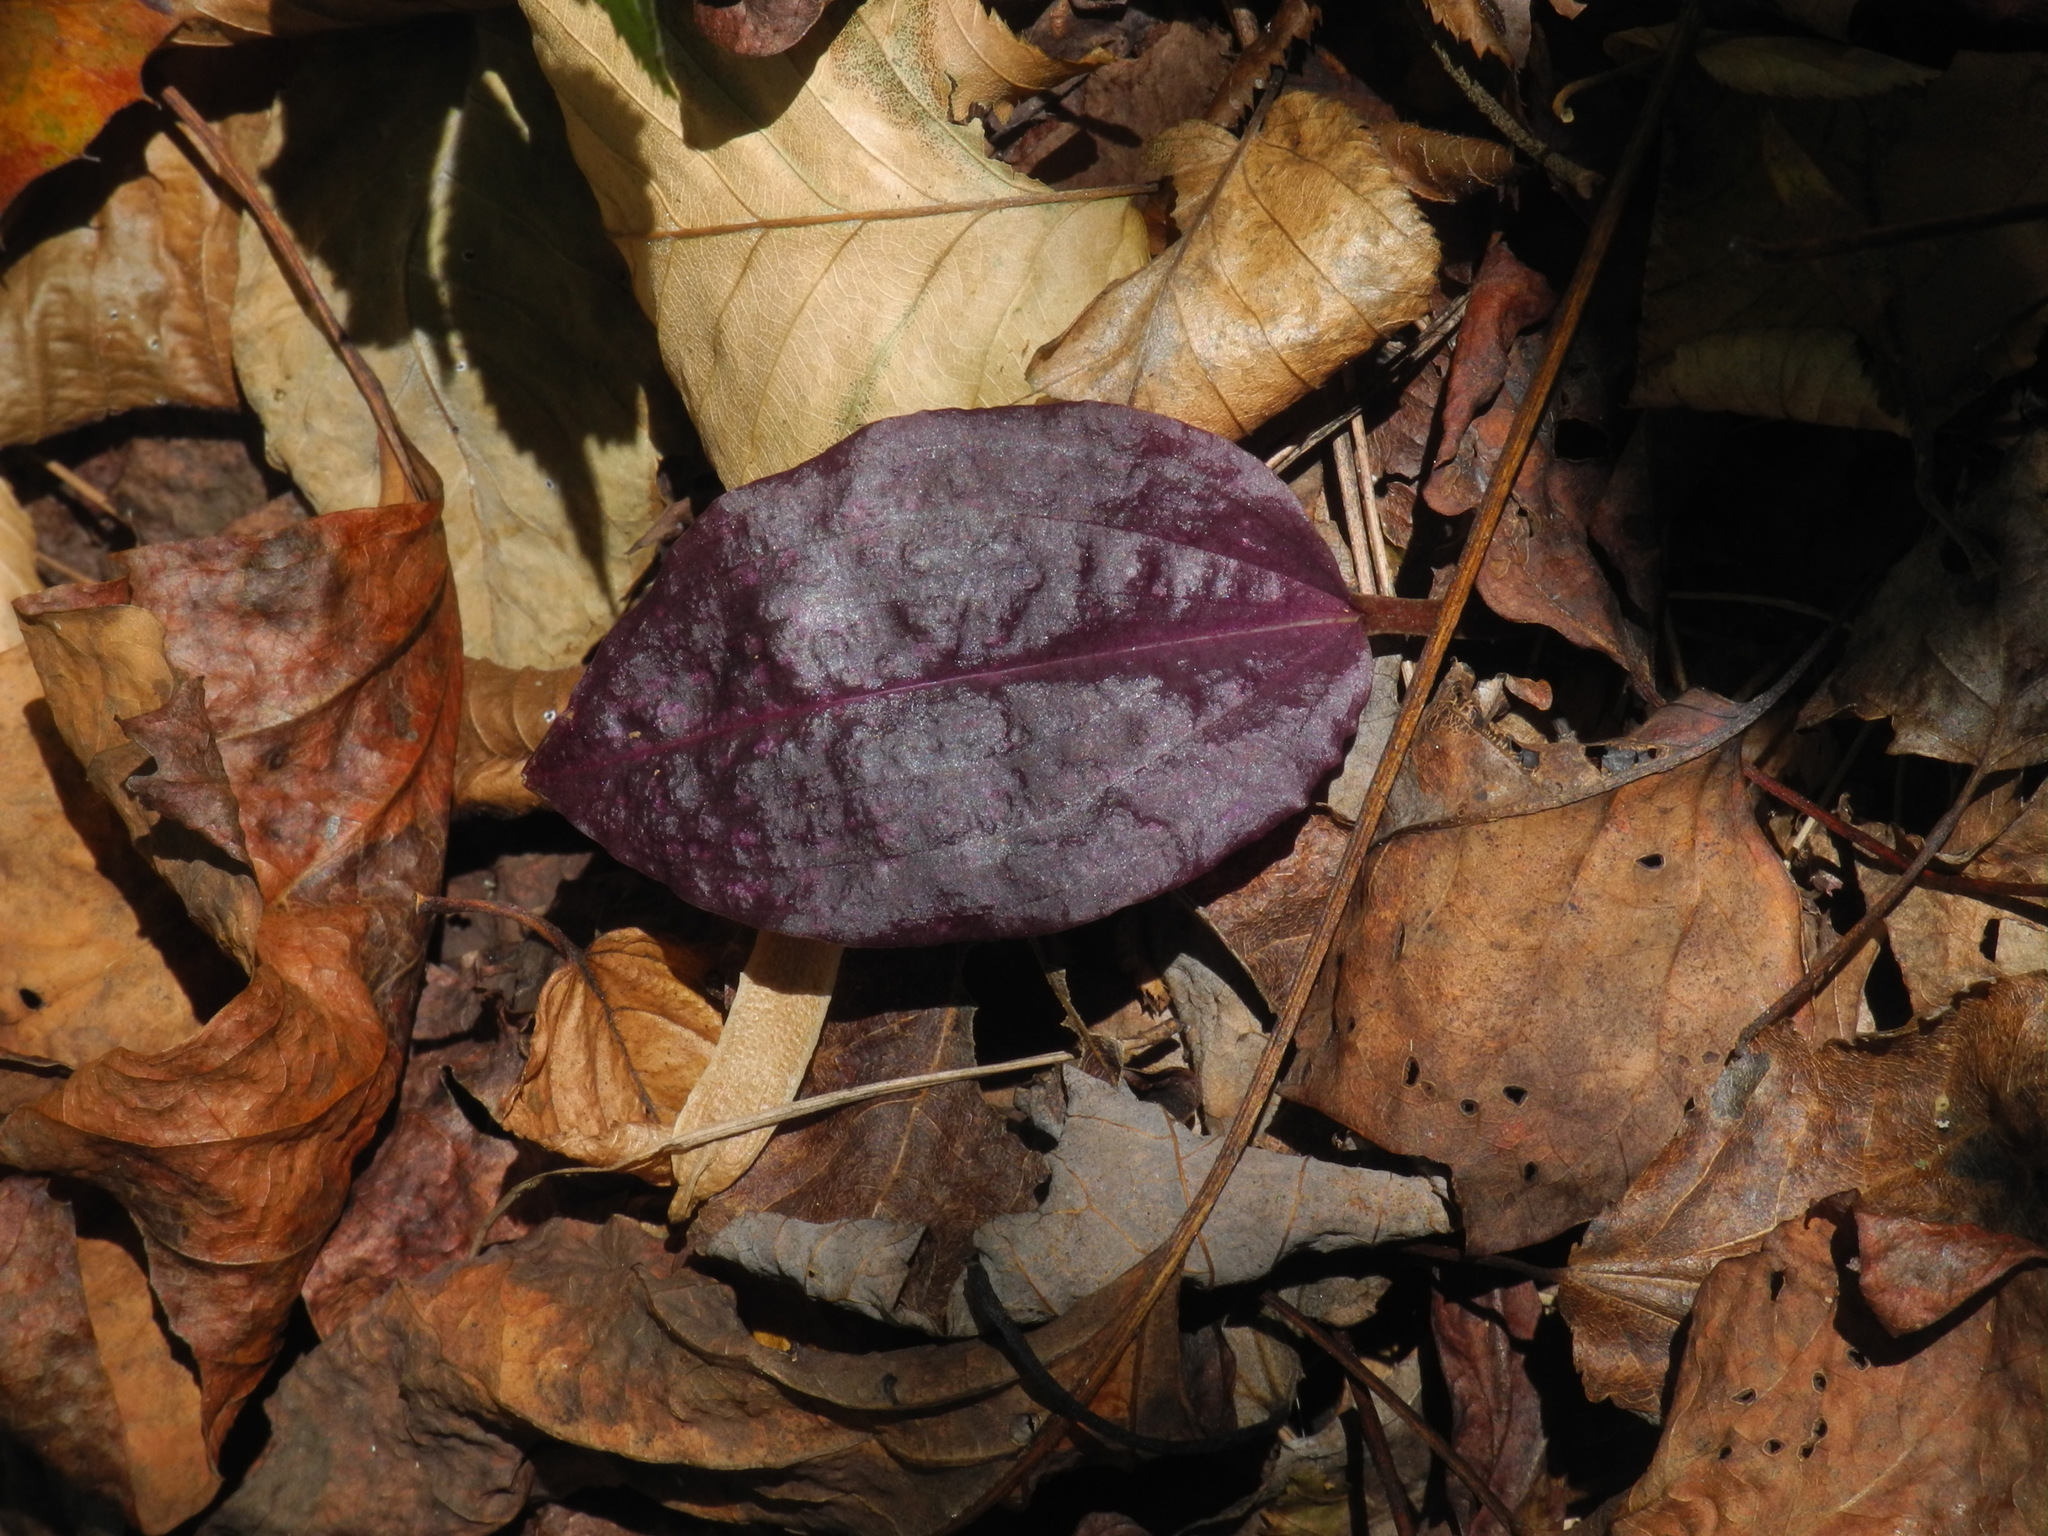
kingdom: Plantae
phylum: Tracheophyta
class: Liliopsida
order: Asparagales
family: Orchidaceae
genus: Tipularia
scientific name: Tipularia discolor
